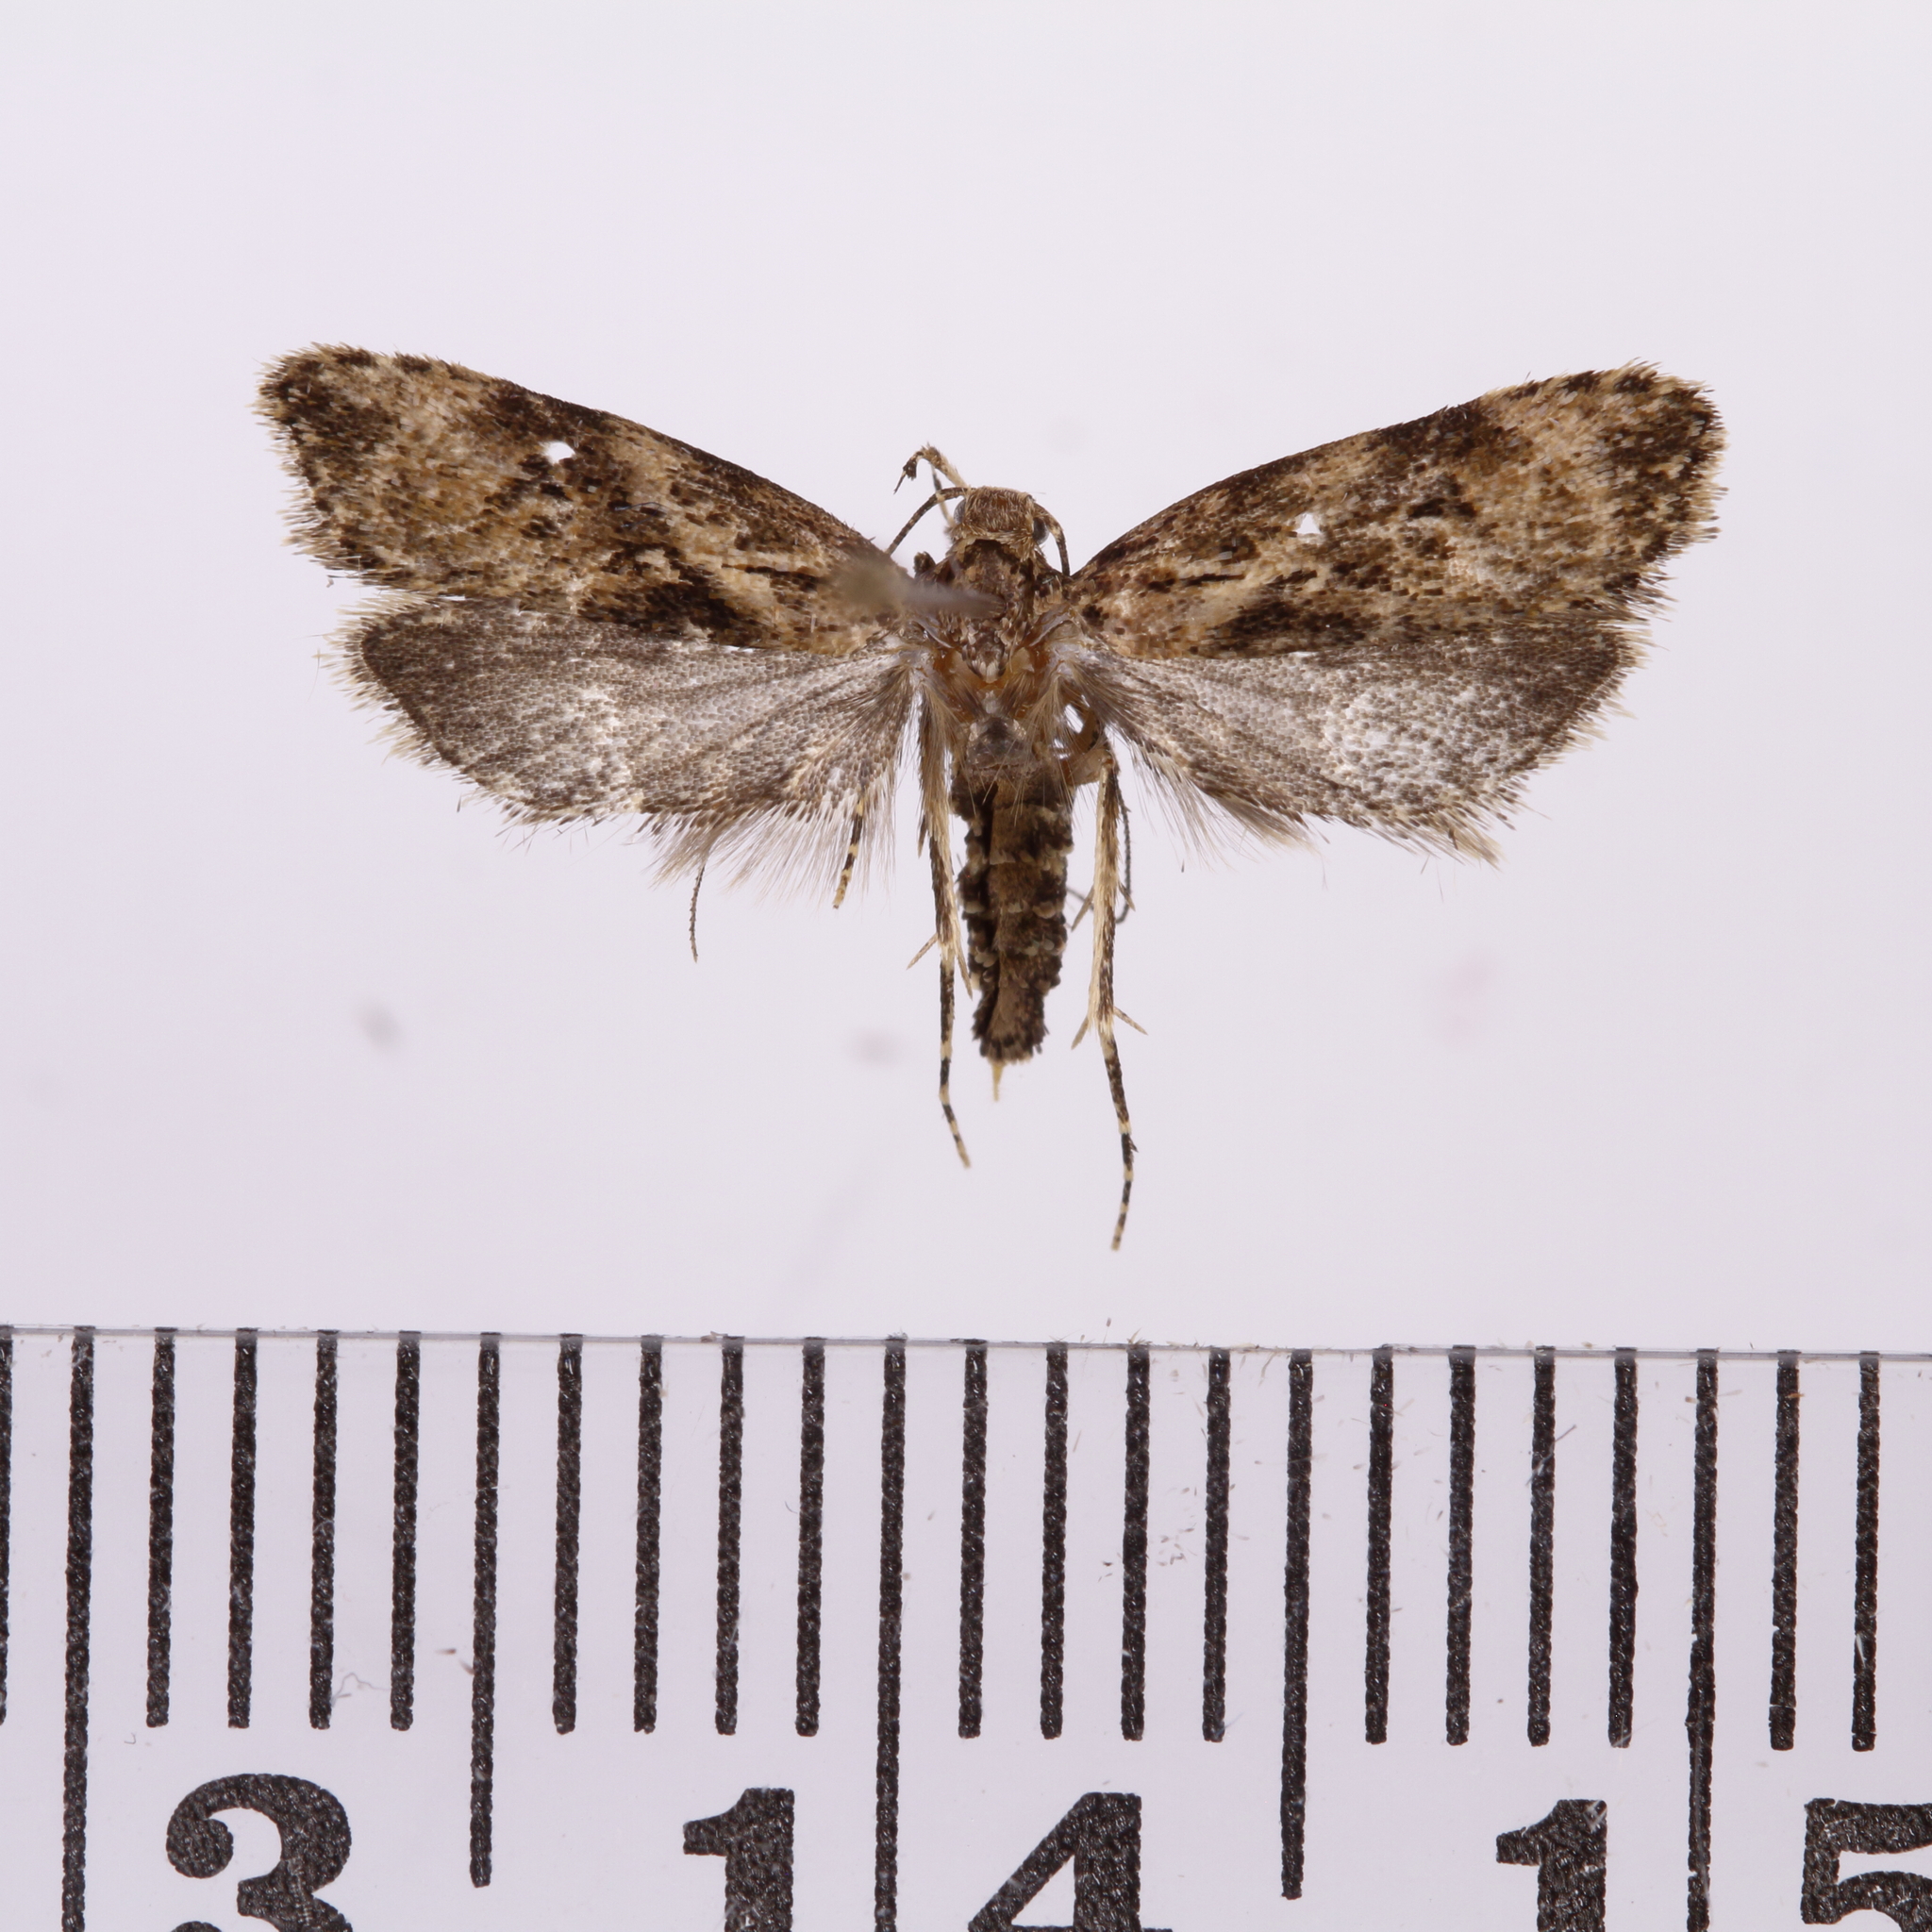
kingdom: Animalia
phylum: Arthropoda
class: Insecta
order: Lepidoptera
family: Oecophoridae
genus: Izatha
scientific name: Izatha austera
